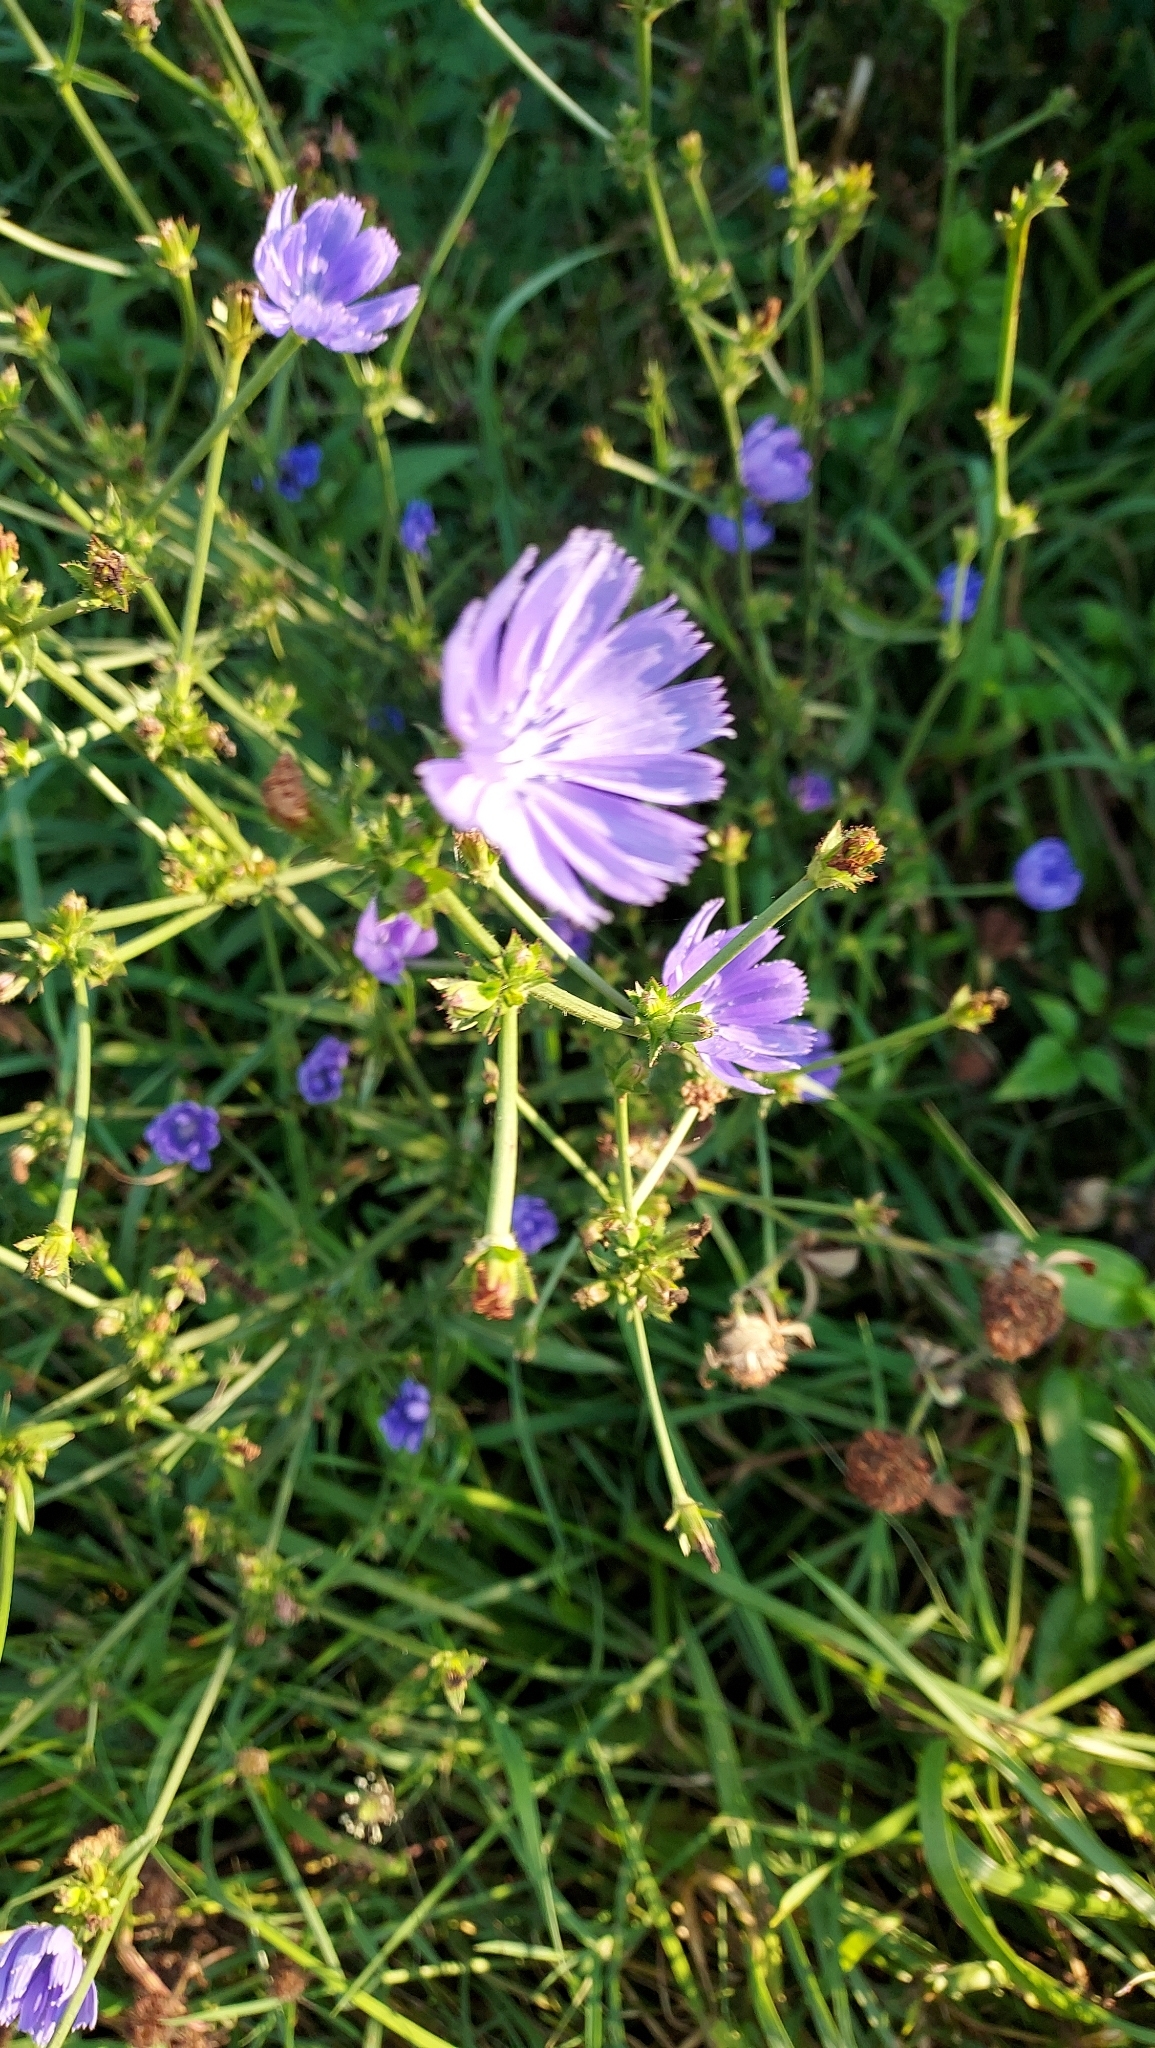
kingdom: Plantae
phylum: Tracheophyta
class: Magnoliopsida
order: Asterales
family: Asteraceae
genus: Cichorium
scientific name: Cichorium intybus
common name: Chicory
